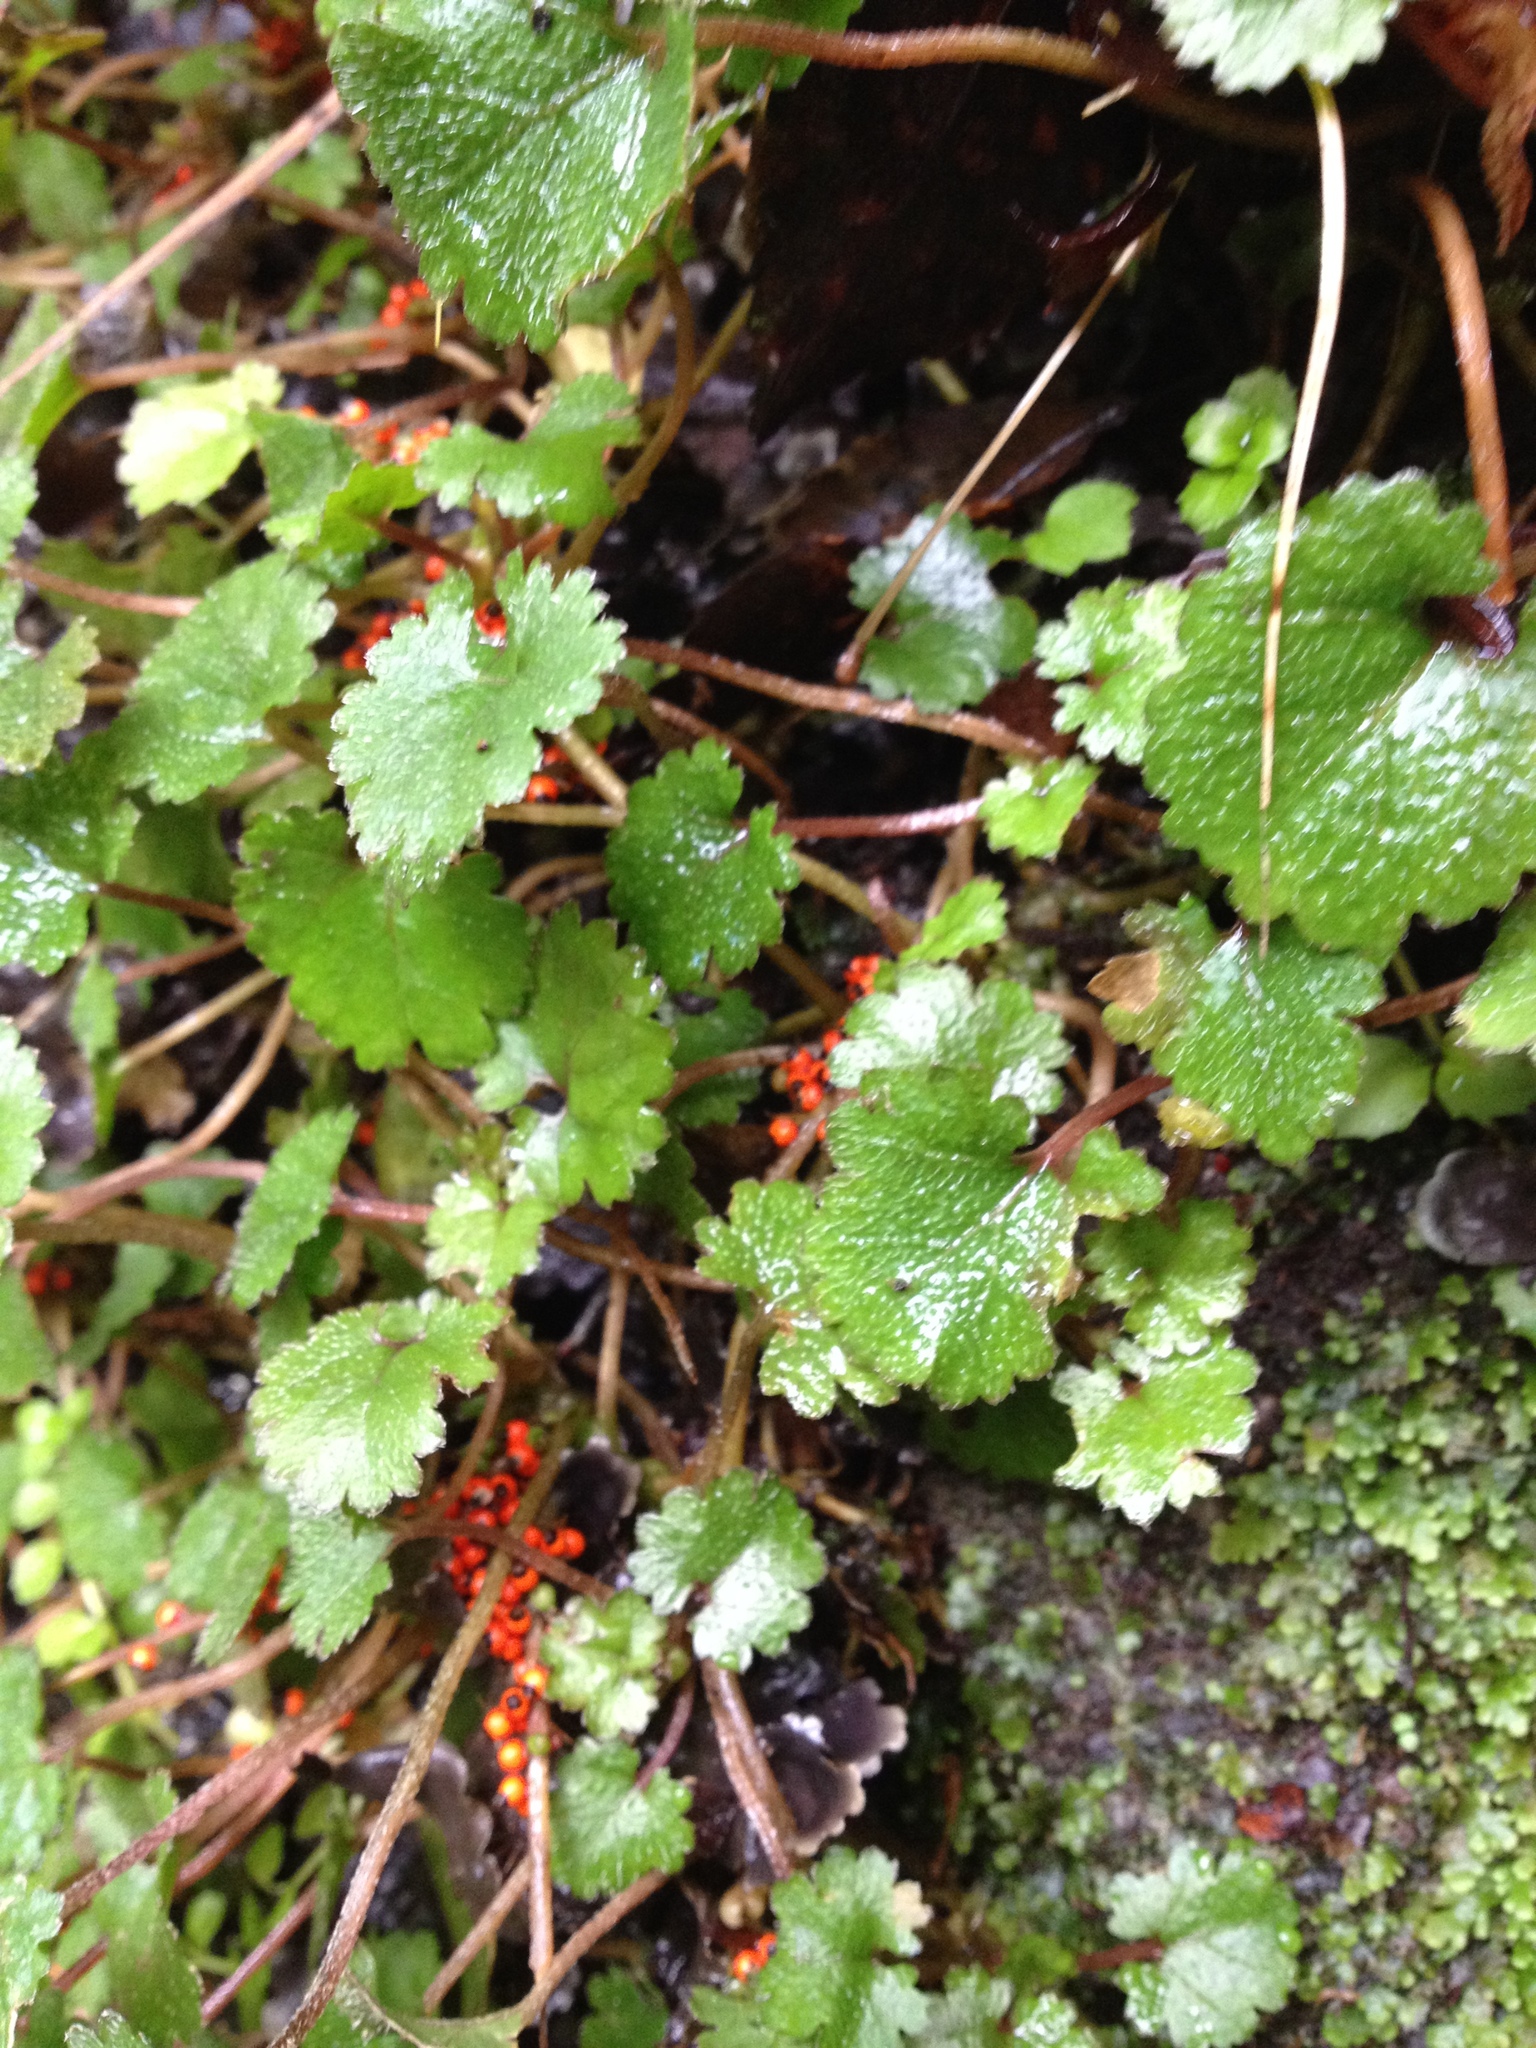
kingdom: Plantae
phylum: Tracheophyta
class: Magnoliopsida
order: Gunnerales
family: Gunneraceae
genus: Gunnera
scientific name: Gunnera monoica
